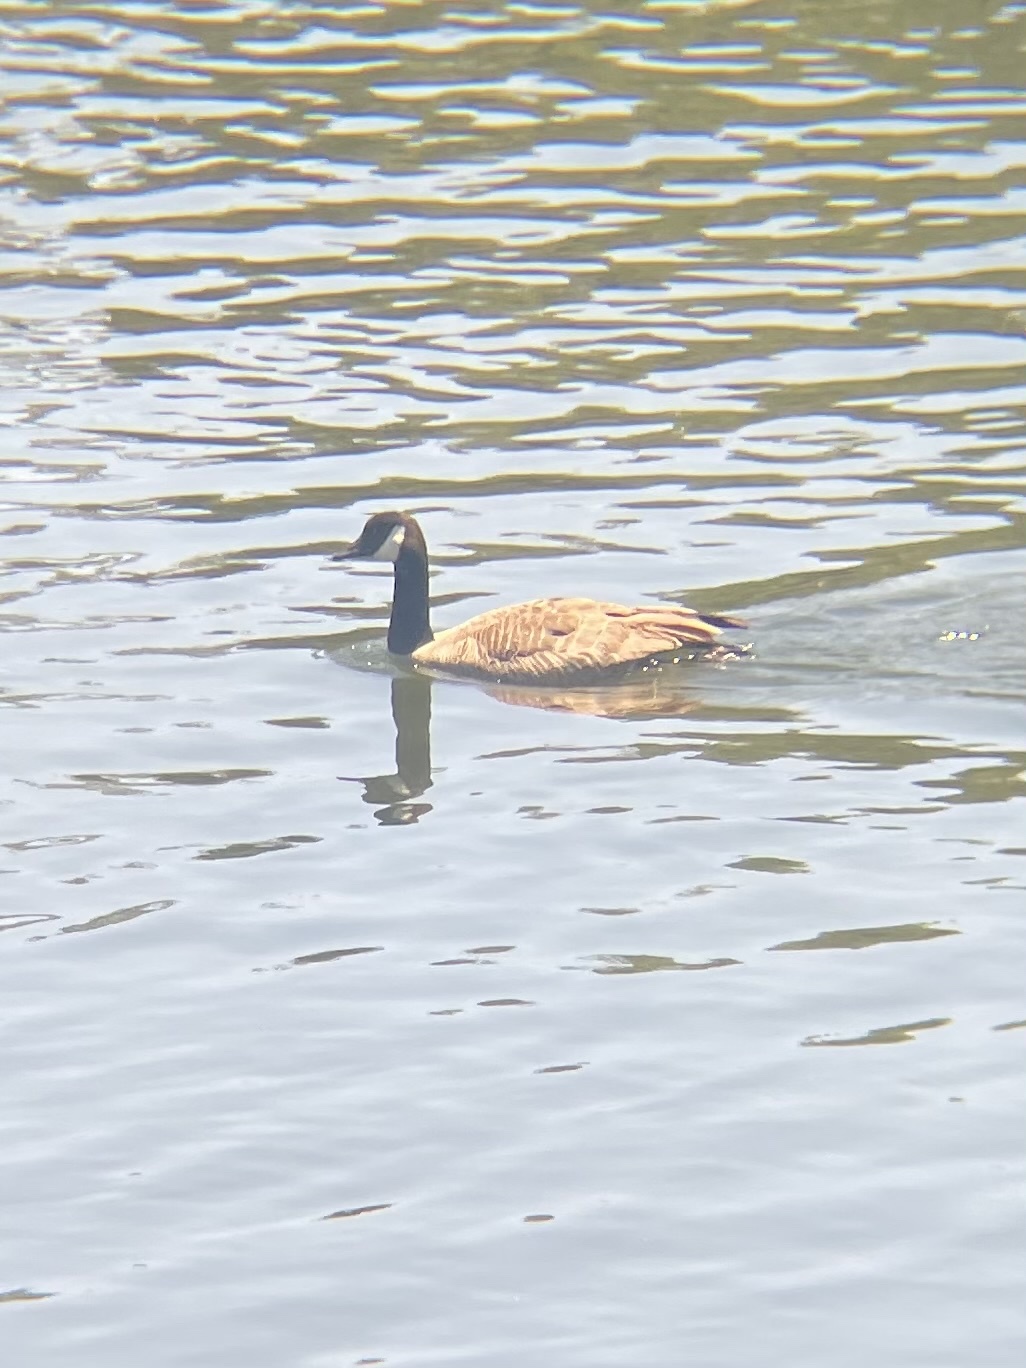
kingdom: Animalia
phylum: Chordata
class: Aves
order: Anseriformes
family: Anatidae
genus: Branta
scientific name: Branta canadensis
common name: Canada goose
